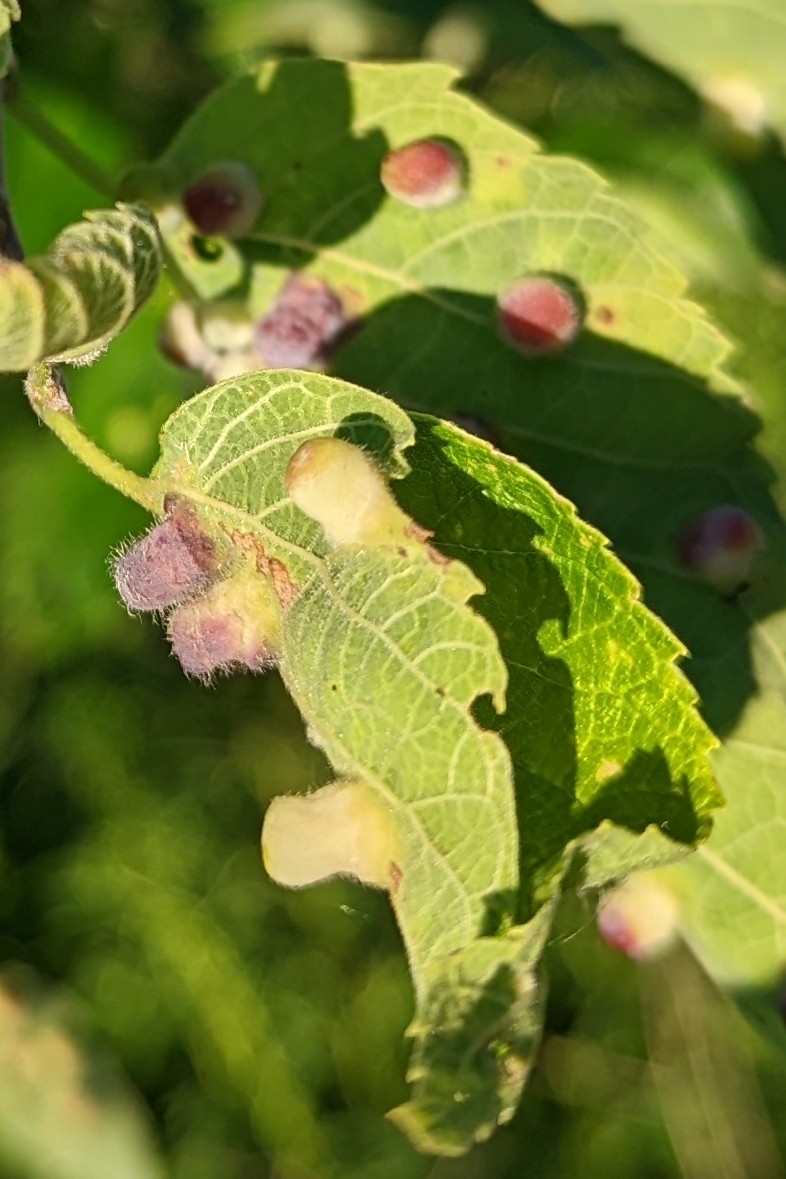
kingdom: Animalia
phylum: Arthropoda
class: Insecta
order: Hemiptera
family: Aphalaridae
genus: Pachypsylla
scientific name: Pachypsylla celtidismamma
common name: Hackberry nipplegall psyllid
